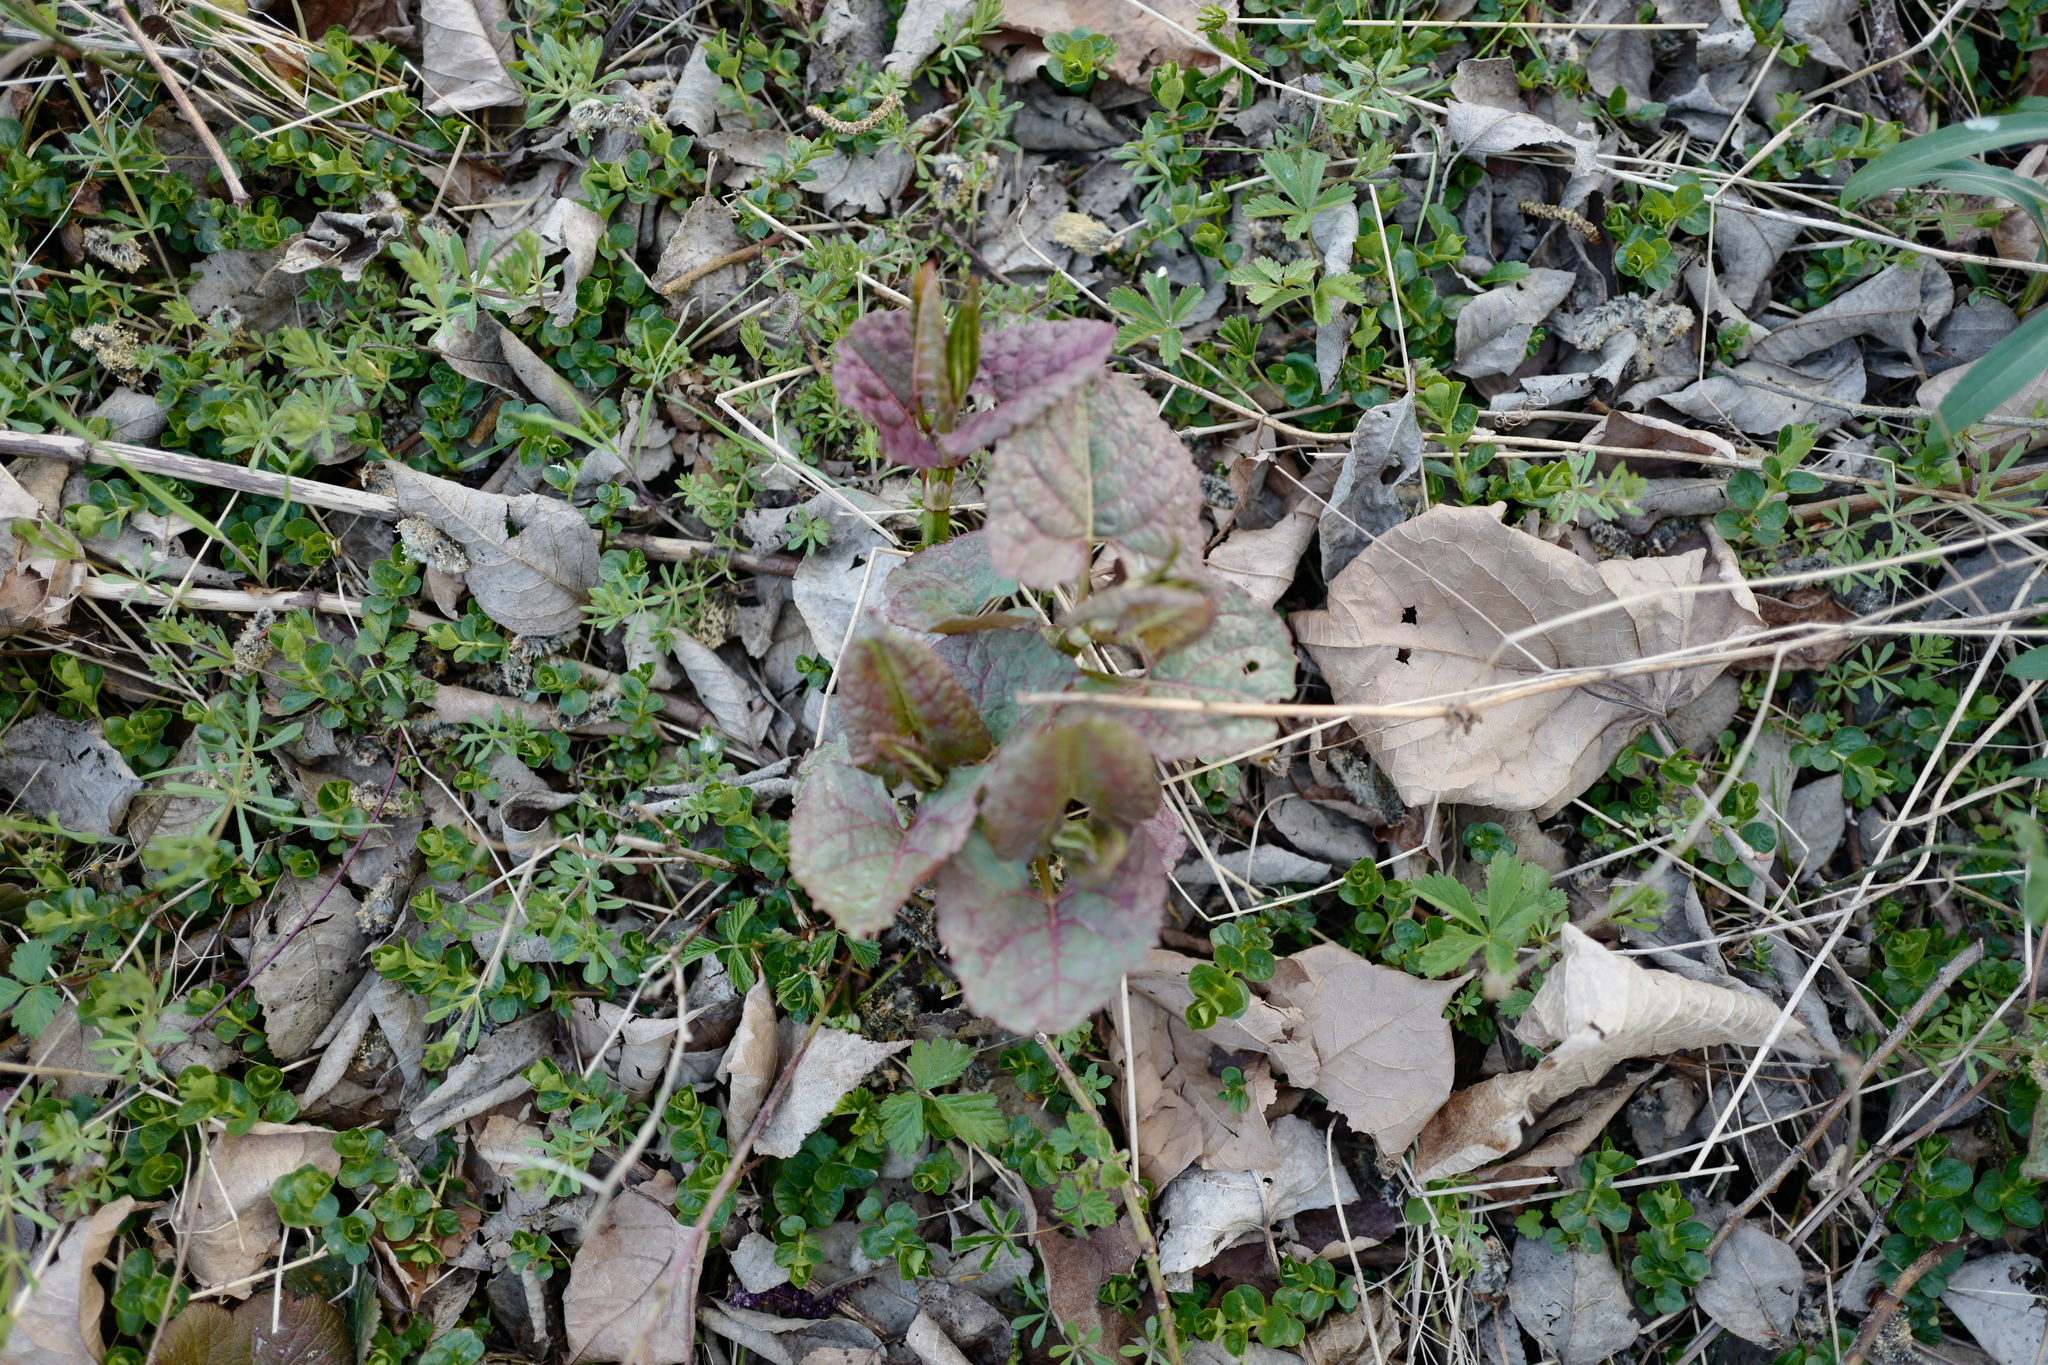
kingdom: Plantae
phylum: Tracheophyta
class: Magnoliopsida
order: Caryophyllales
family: Polygonaceae
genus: Reynoutria
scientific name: Reynoutria bohemica
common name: Bohemian knotweed
